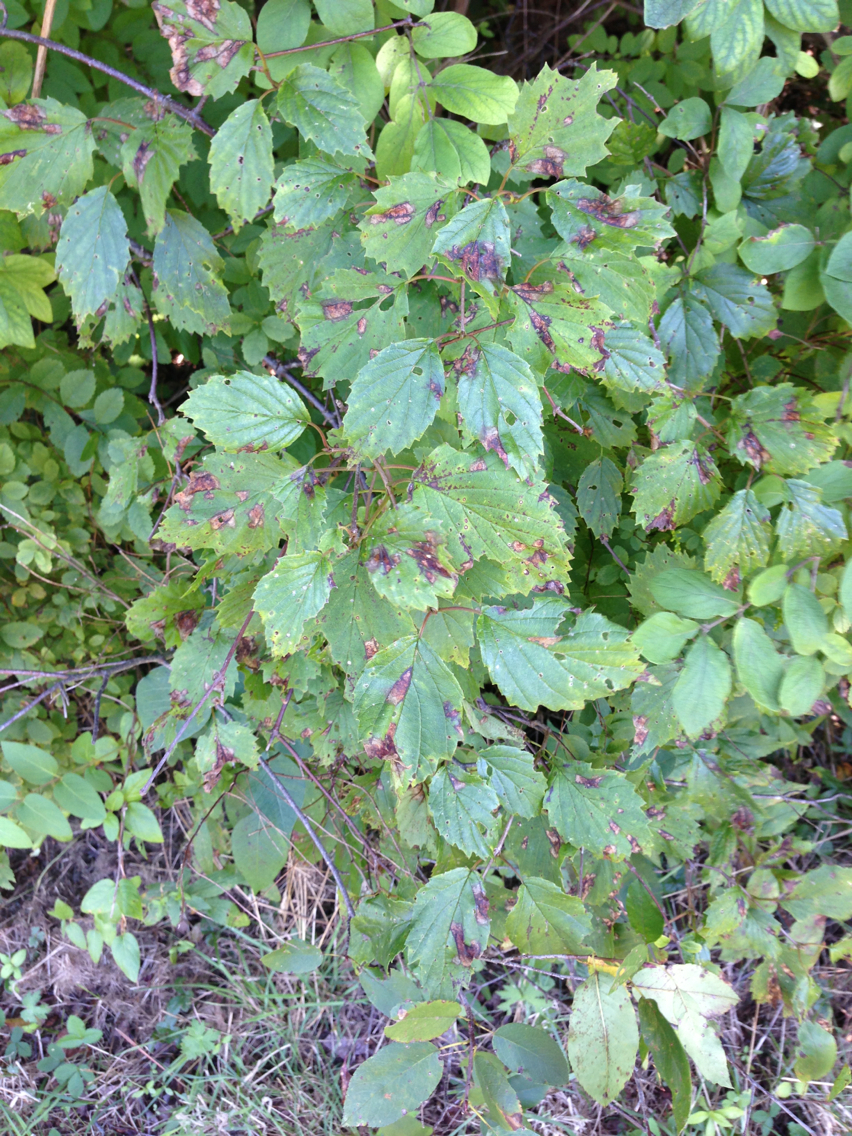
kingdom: Plantae
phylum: Tracheophyta
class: Magnoliopsida
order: Dipsacales
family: Viburnaceae
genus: Viburnum
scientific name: Viburnum dentatum
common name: Arrow-wood
